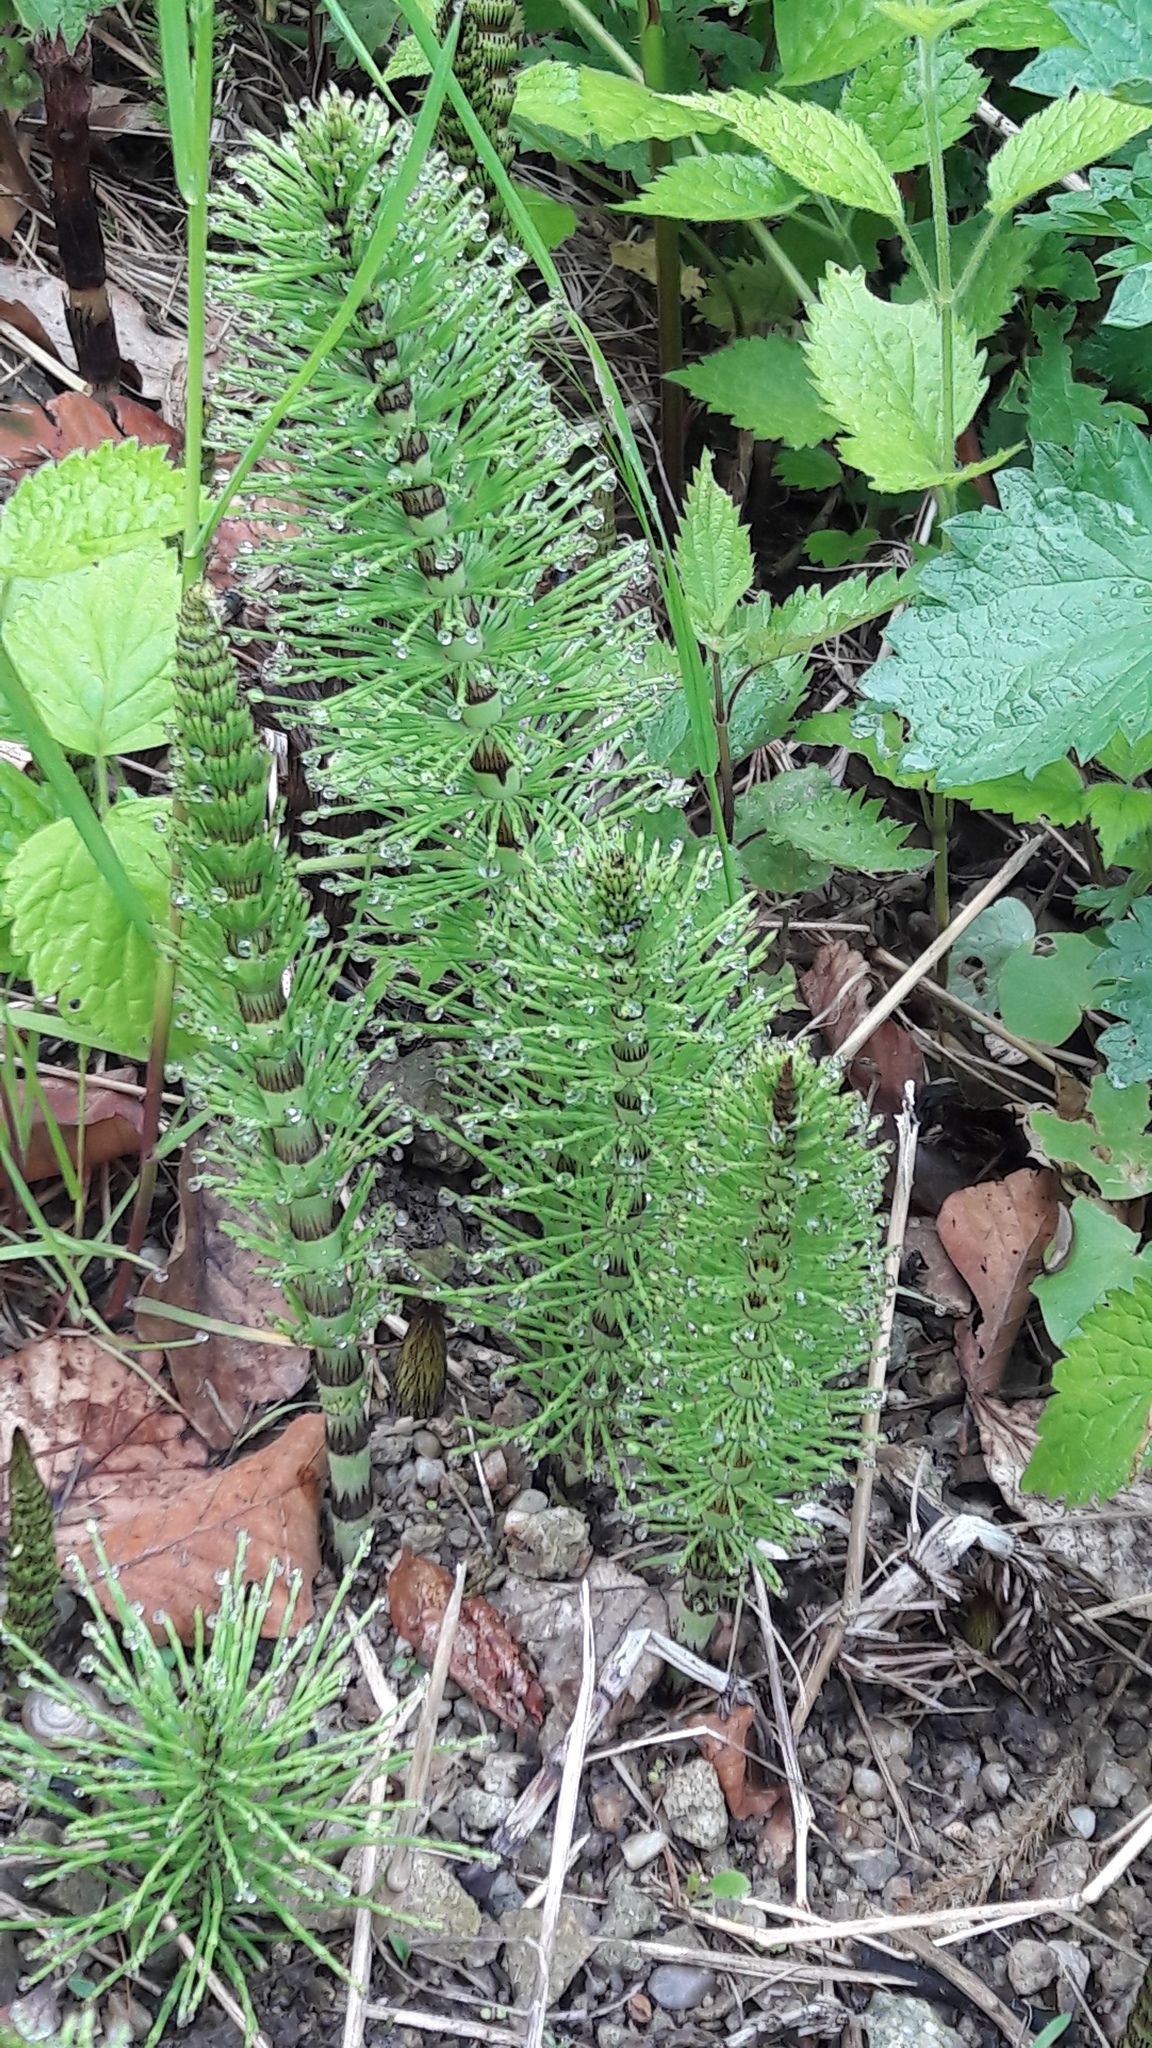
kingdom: Plantae
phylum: Tracheophyta
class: Polypodiopsida
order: Equisetales
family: Equisetaceae
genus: Equisetum
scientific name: Equisetum telmateia
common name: Great horsetail
